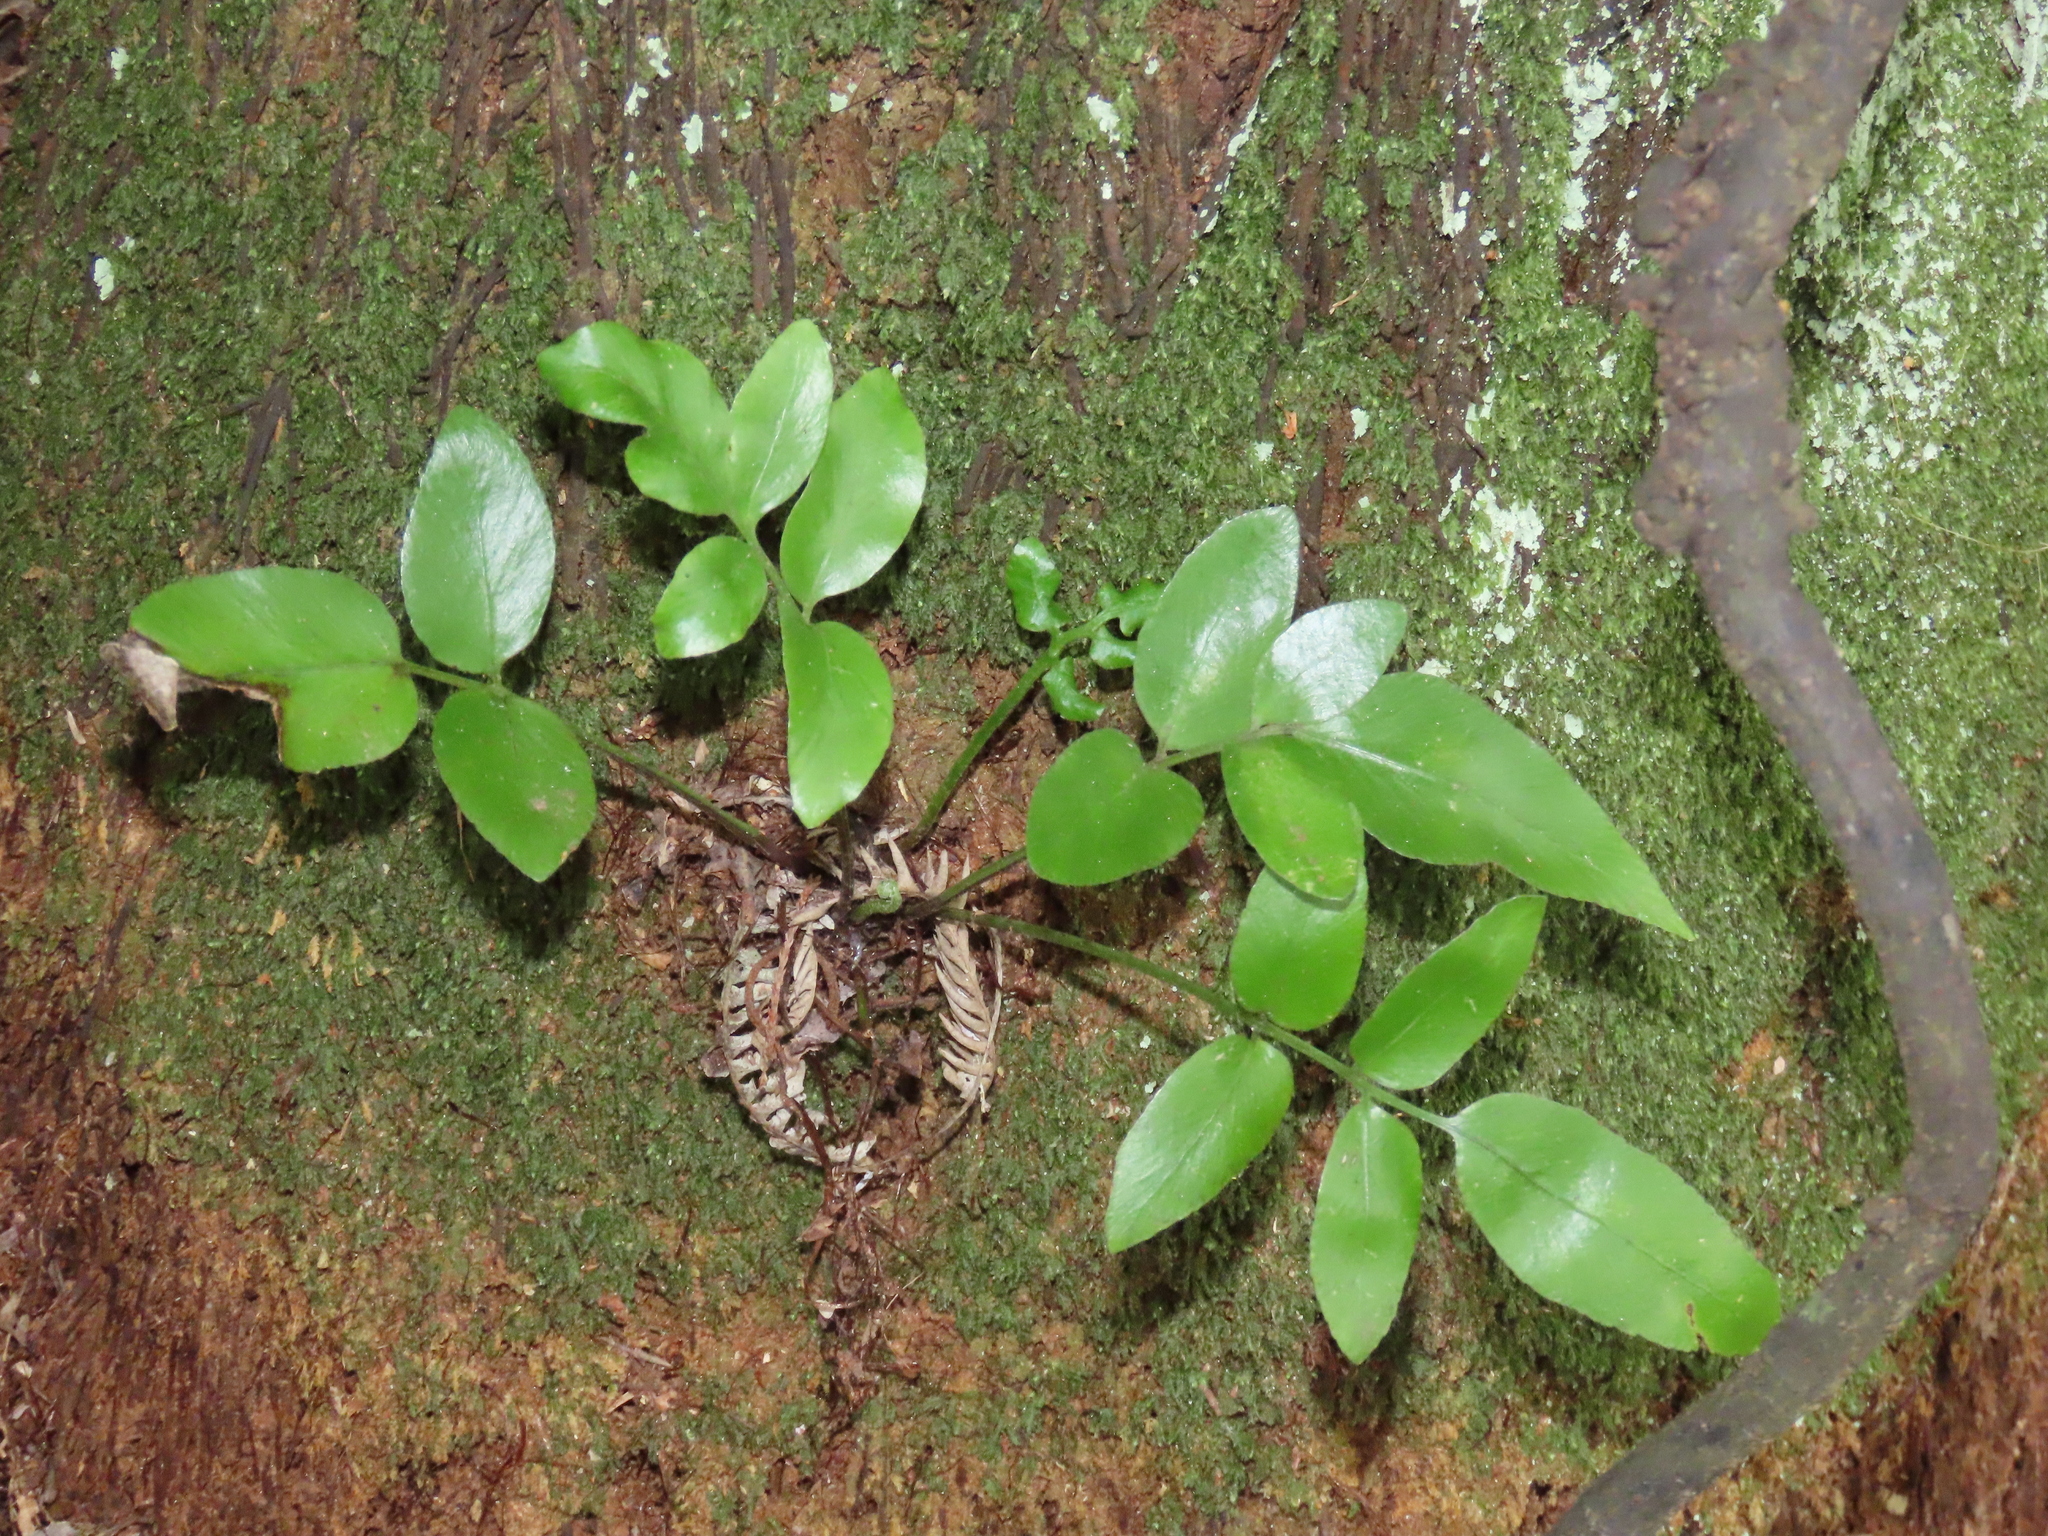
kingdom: Plantae
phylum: Tracheophyta
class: Polypodiopsida
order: Polypodiales
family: Aspleniaceae
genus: Asplenium
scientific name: Asplenium oblongifolium
